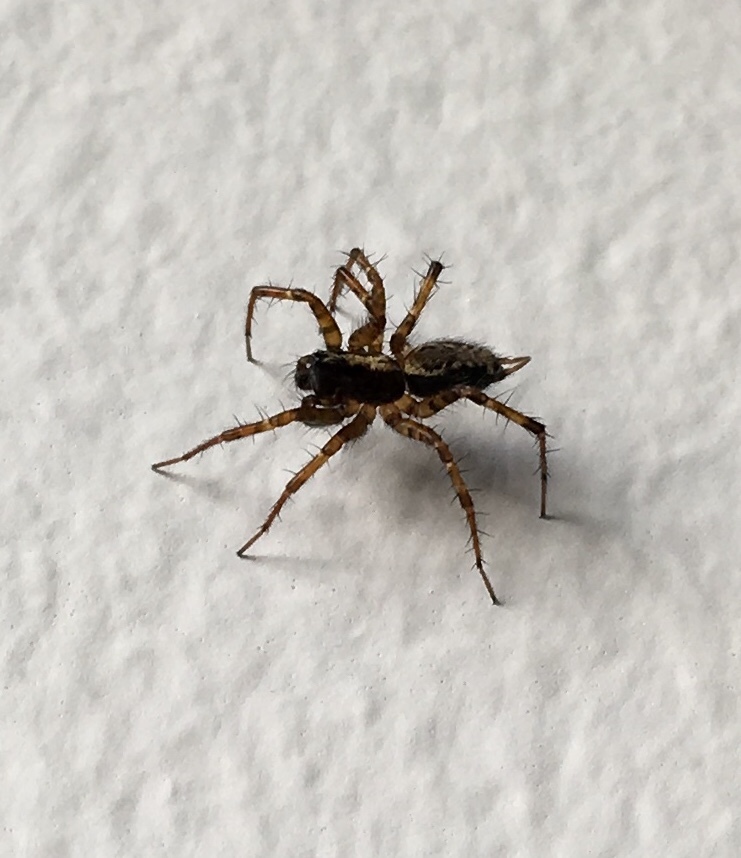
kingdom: Animalia
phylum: Arthropoda
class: Arachnida
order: Araneae
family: Agelenidae
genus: Textrix
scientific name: Textrix denticulata
